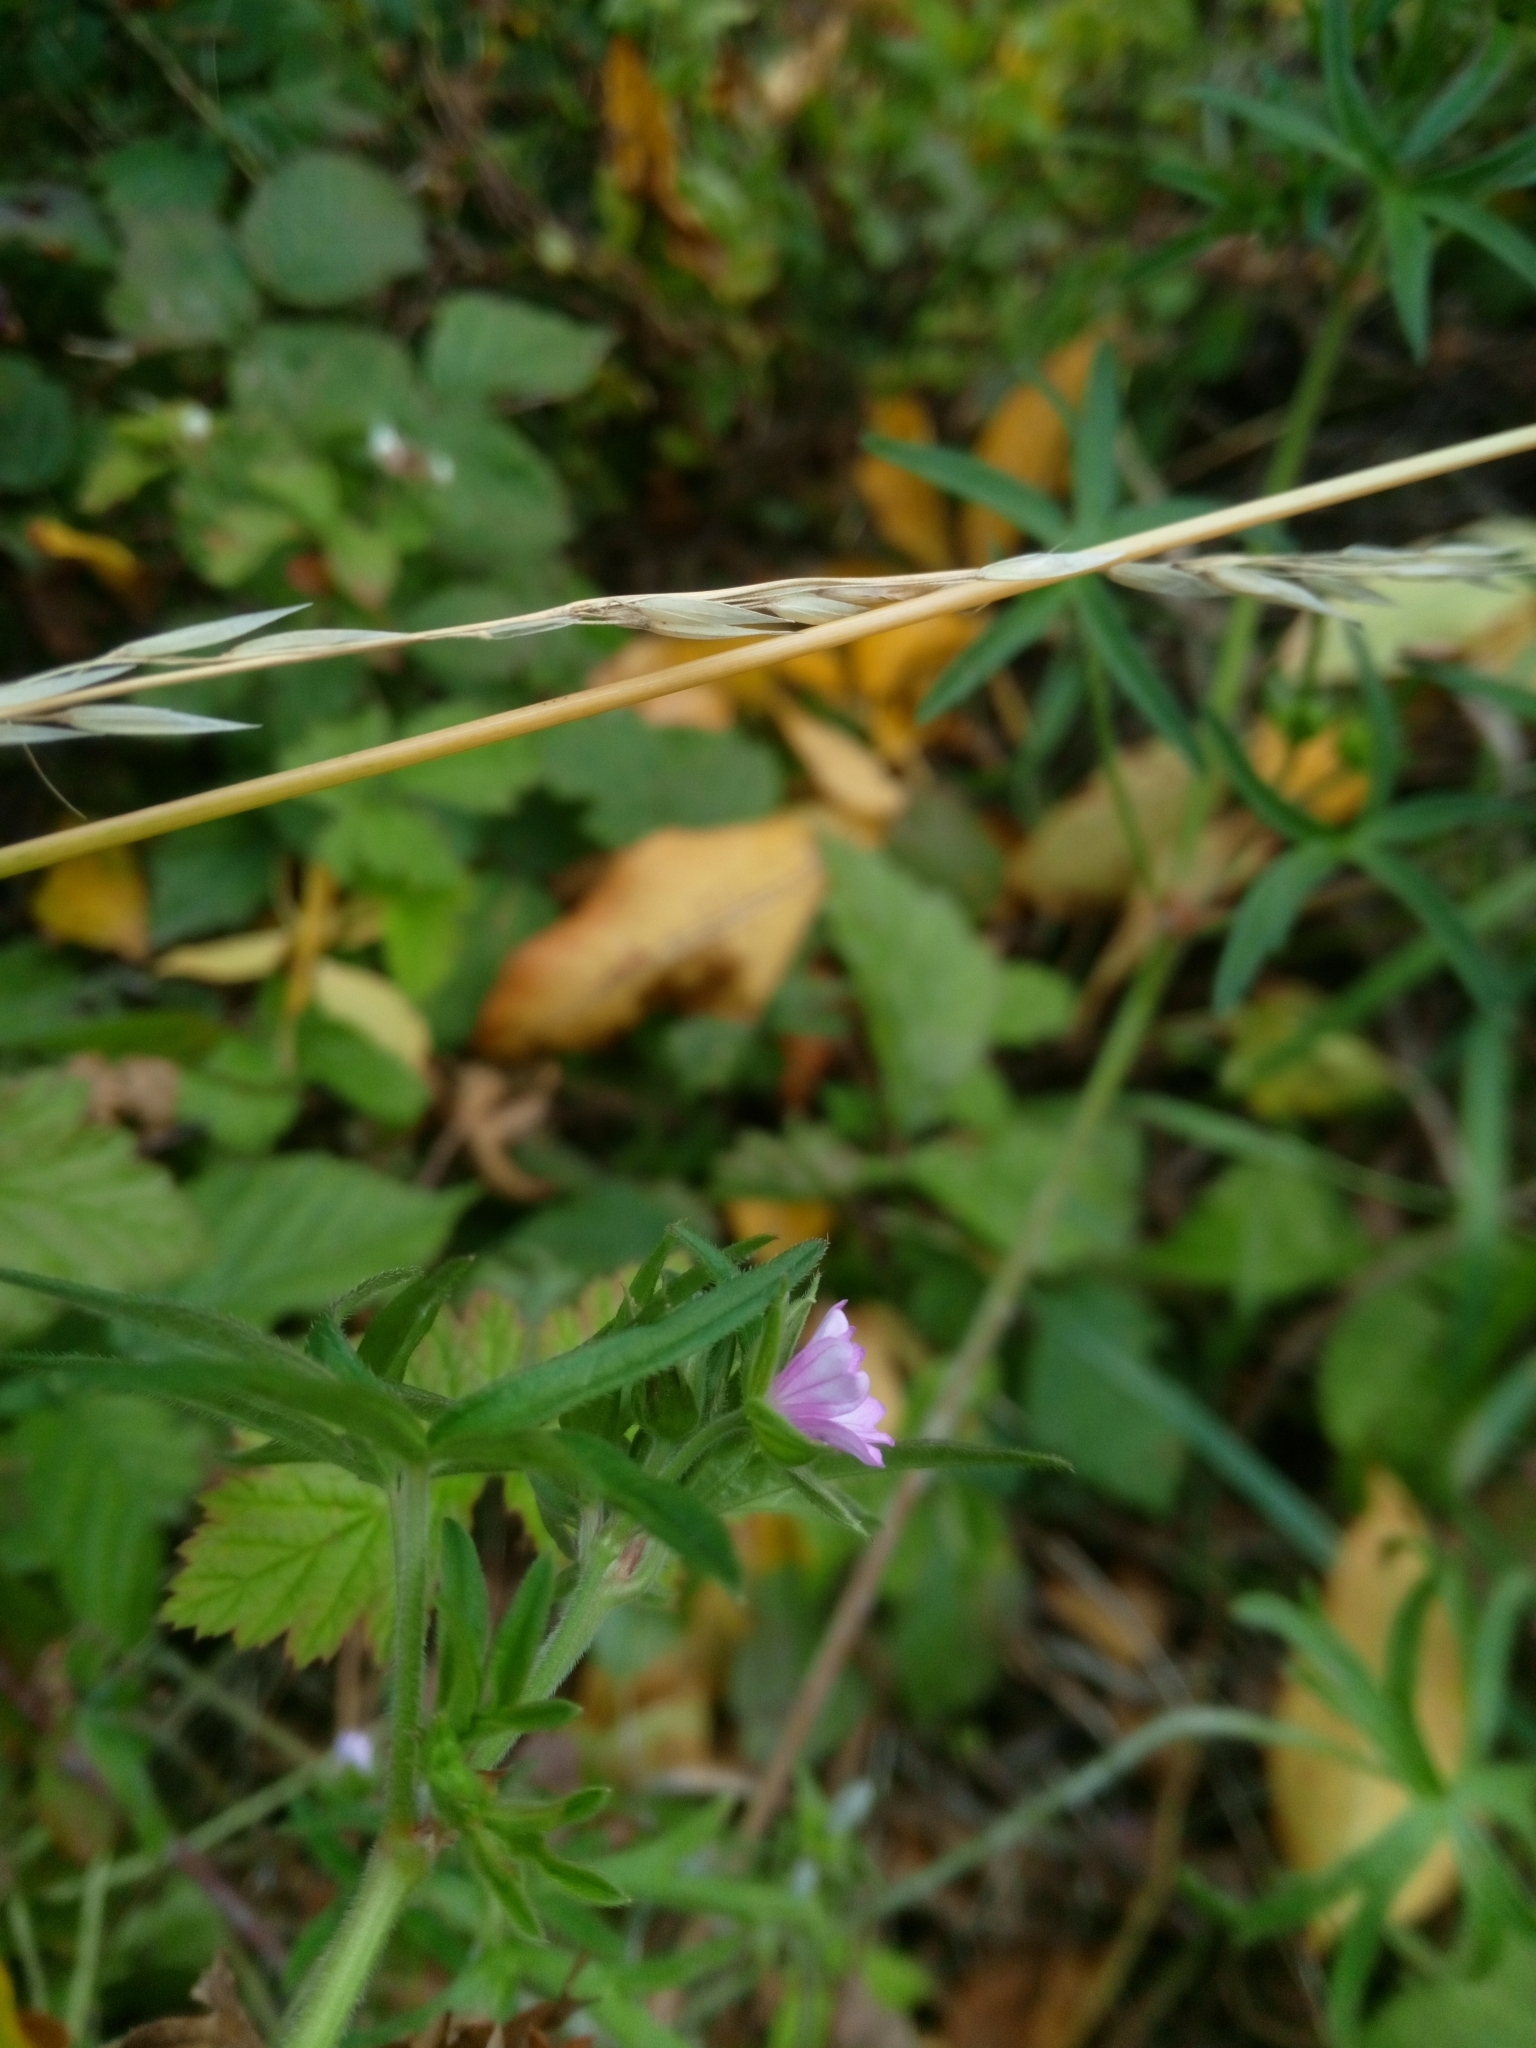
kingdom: Plantae
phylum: Tracheophyta
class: Magnoliopsida
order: Geraniales
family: Geraniaceae
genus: Geranium
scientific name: Geranium dissectum
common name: Cut-leaved crane's-bill
